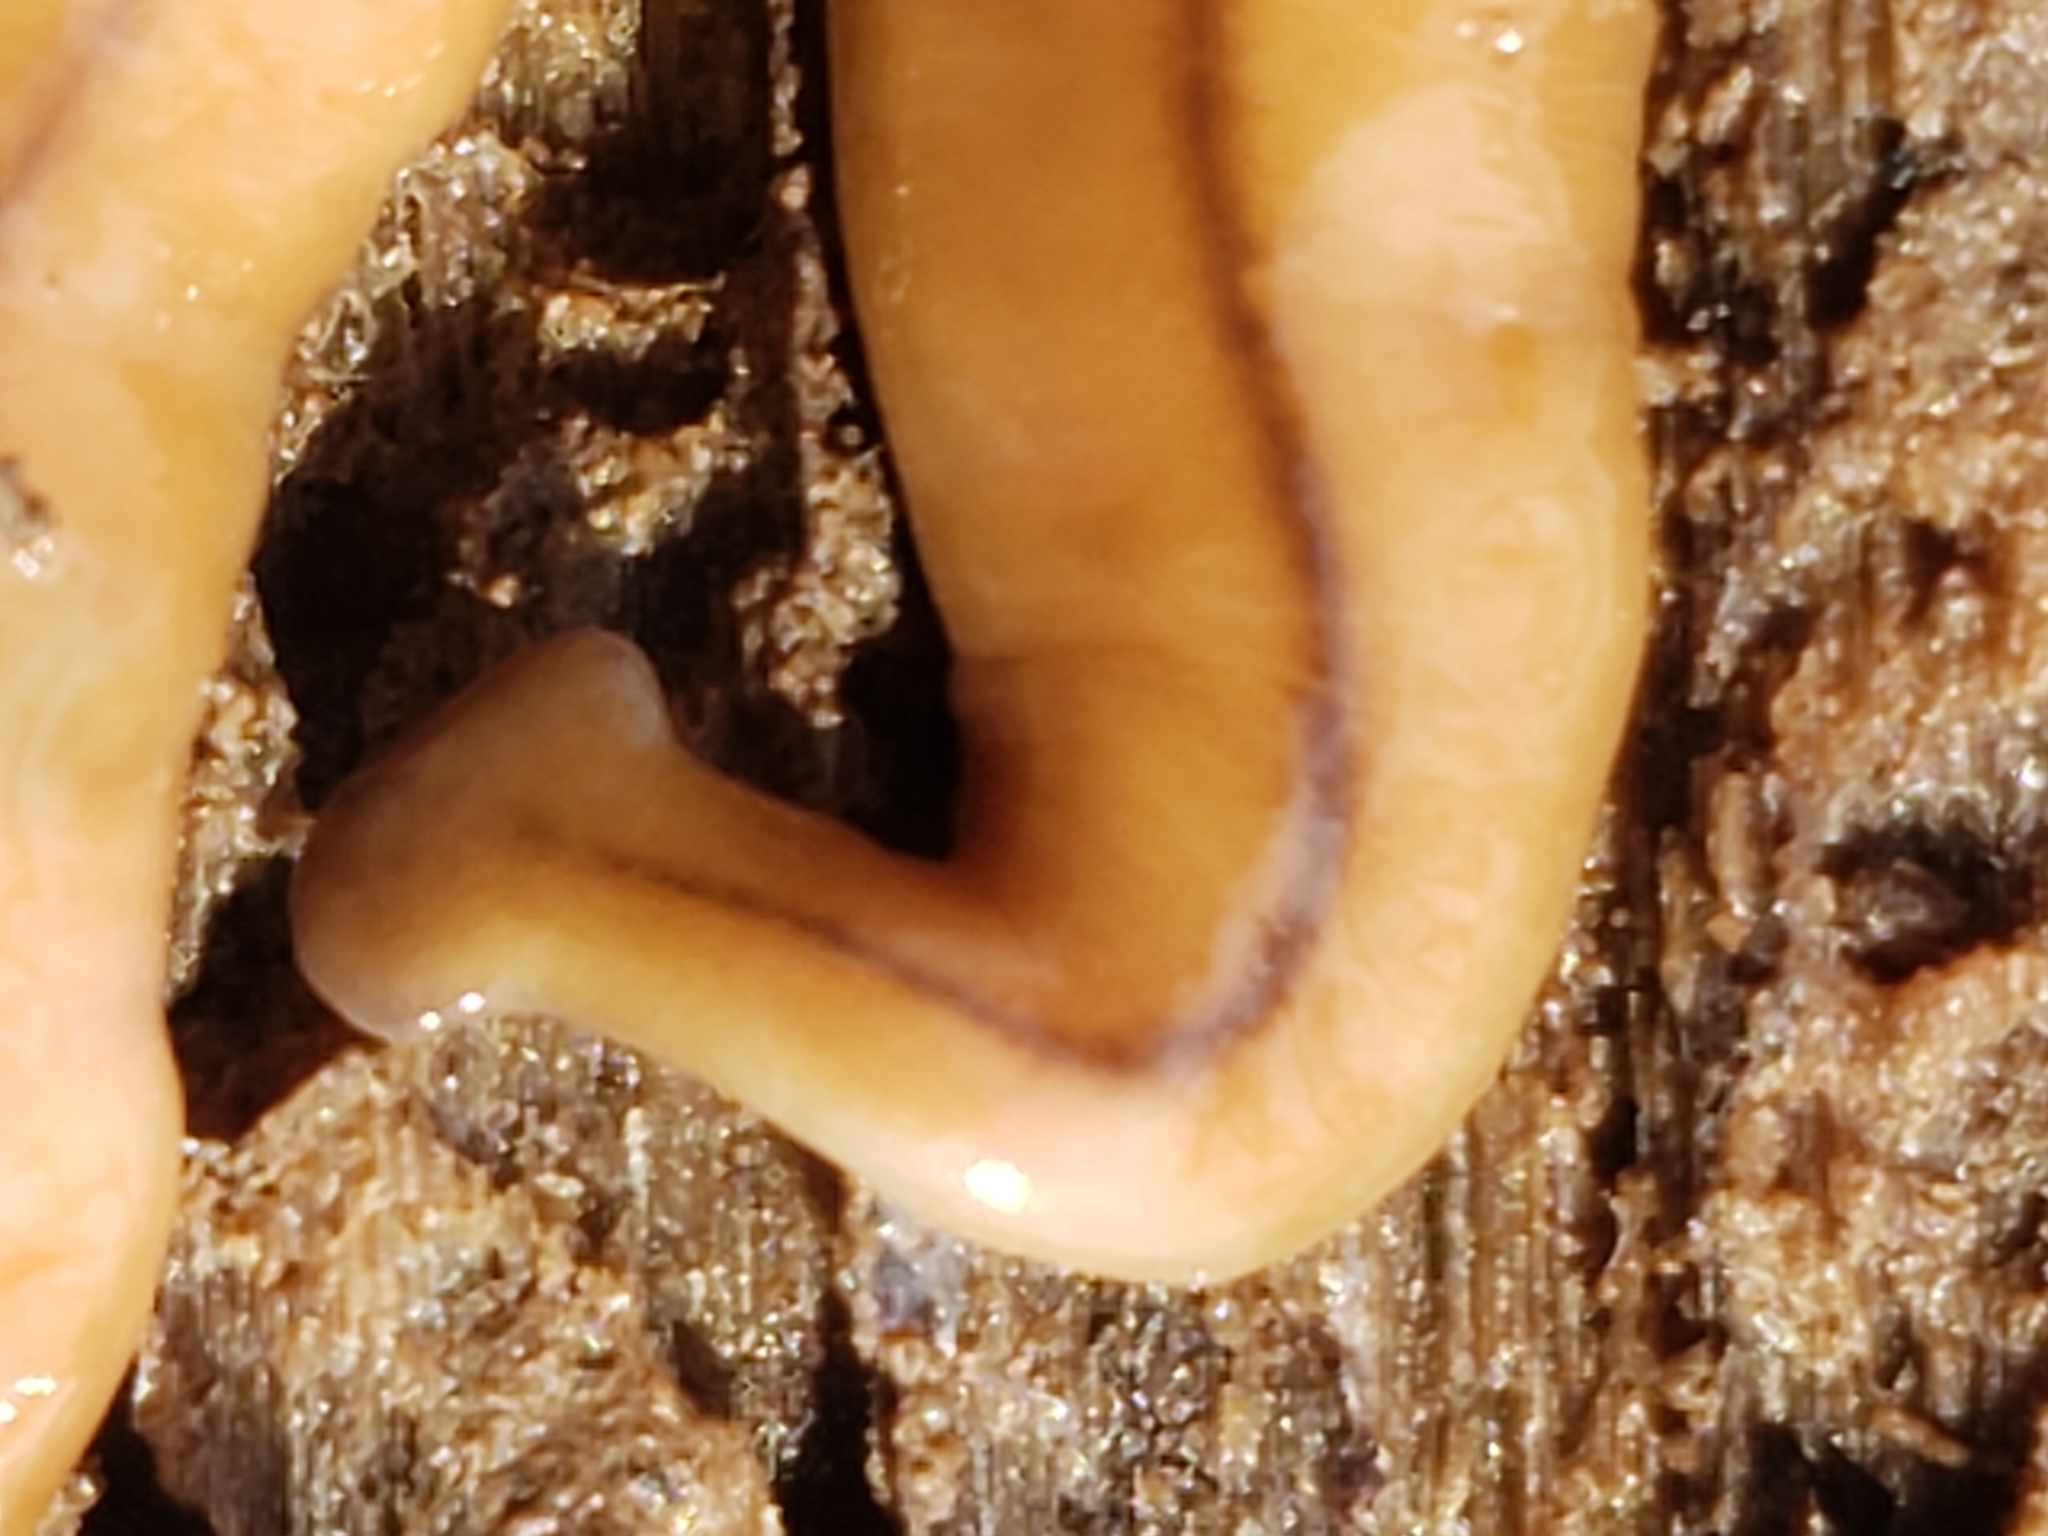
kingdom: Animalia
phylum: Platyhelminthes
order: Tricladida
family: Geoplanidae
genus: Bipalium
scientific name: Bipalium adventitium
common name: Land planarian
